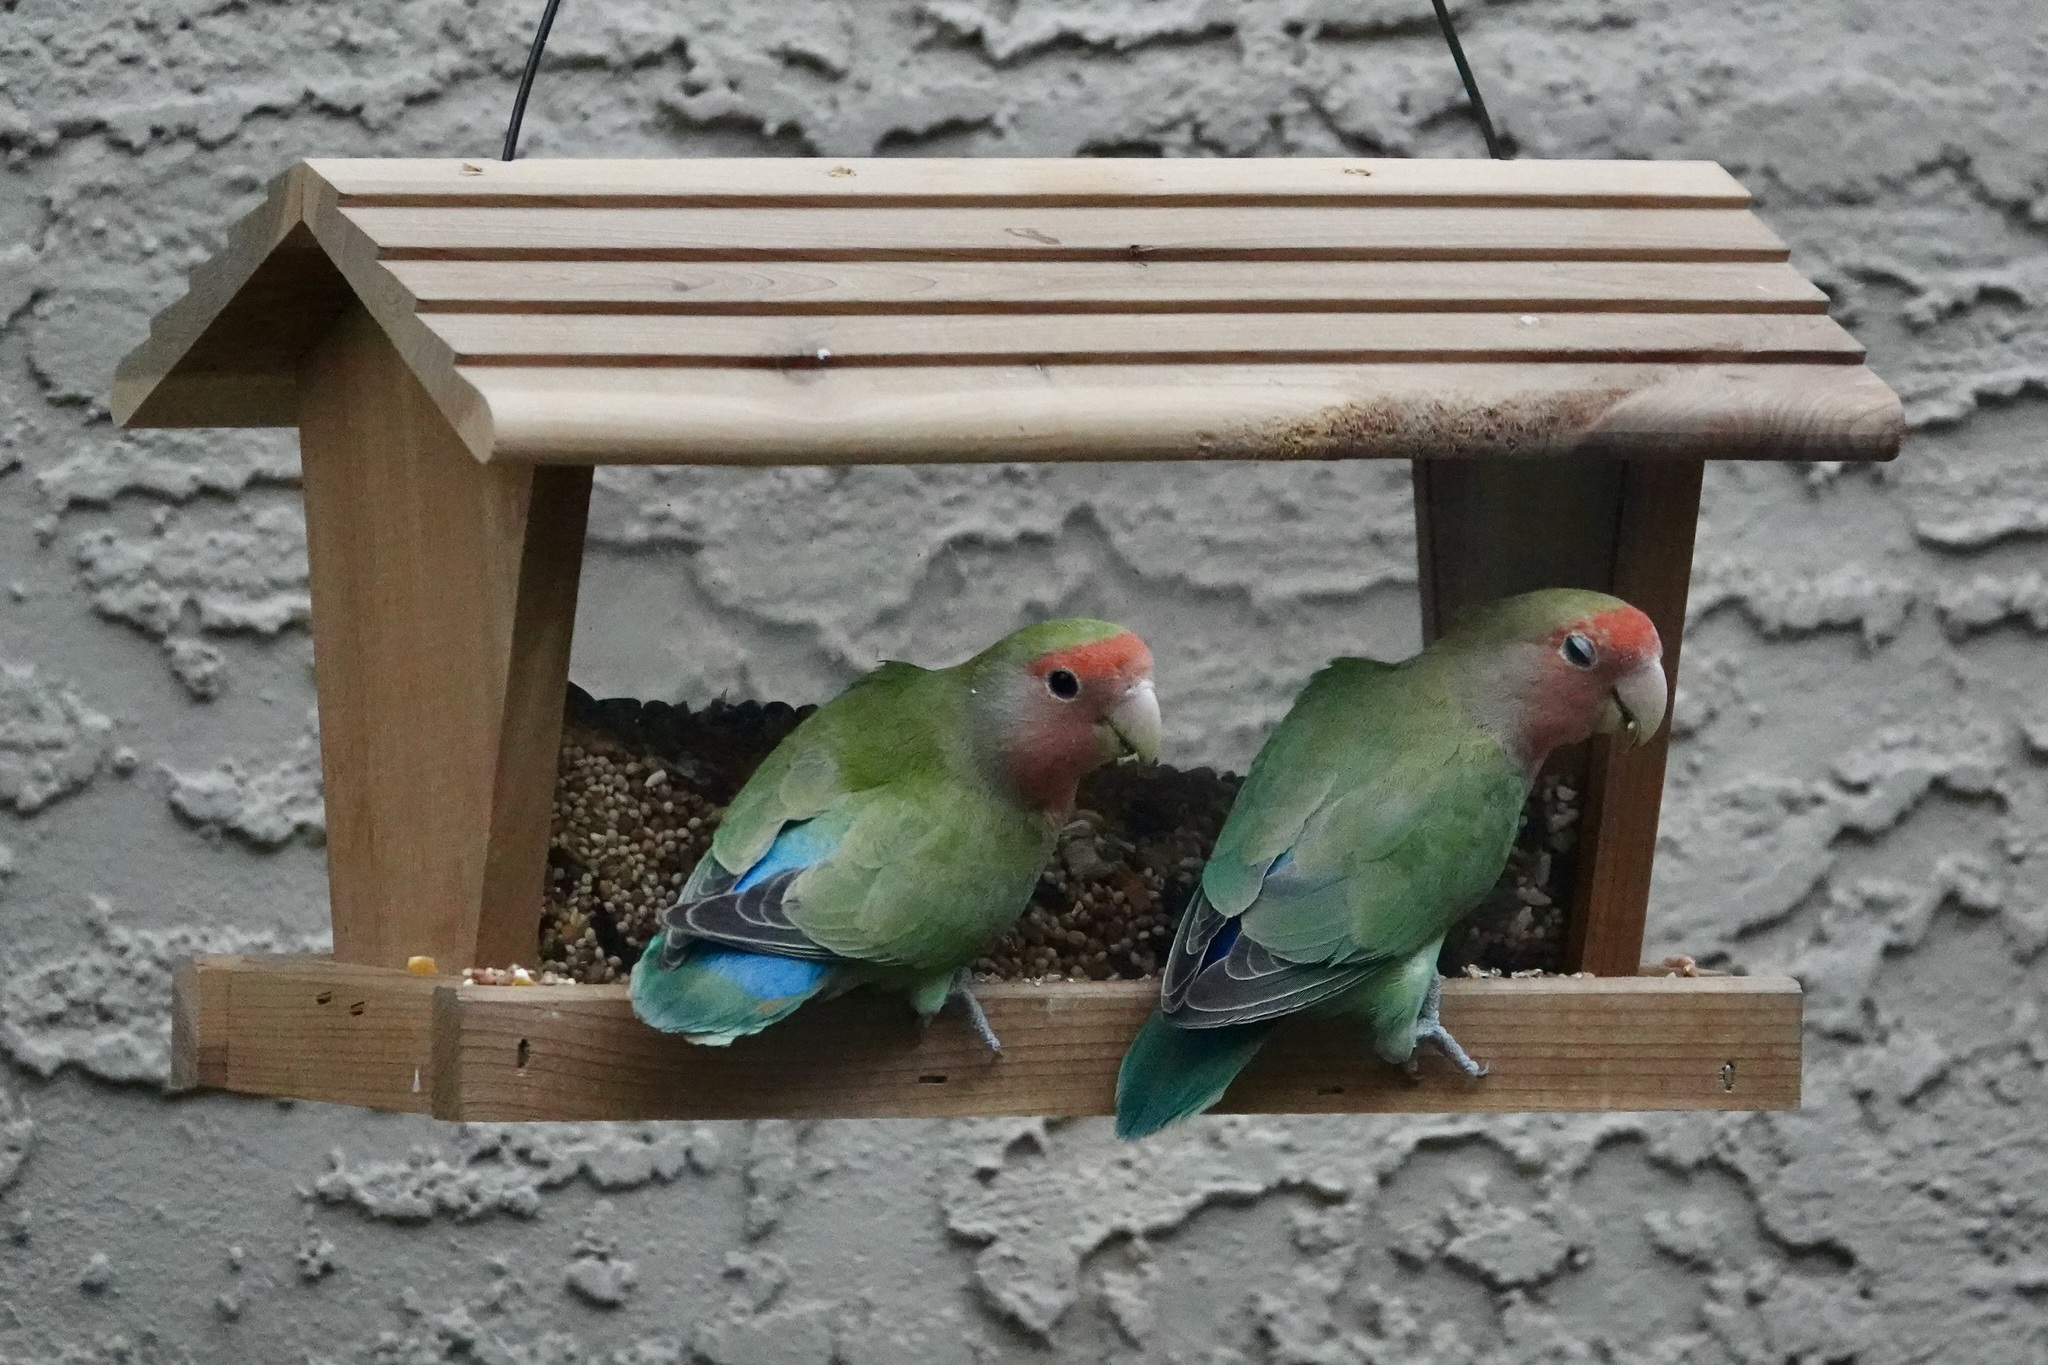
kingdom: Animalia
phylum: Chordata
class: Aves
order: Psittaciformes
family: Psittacidae
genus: Agapornis
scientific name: Agapornis roseicollis
